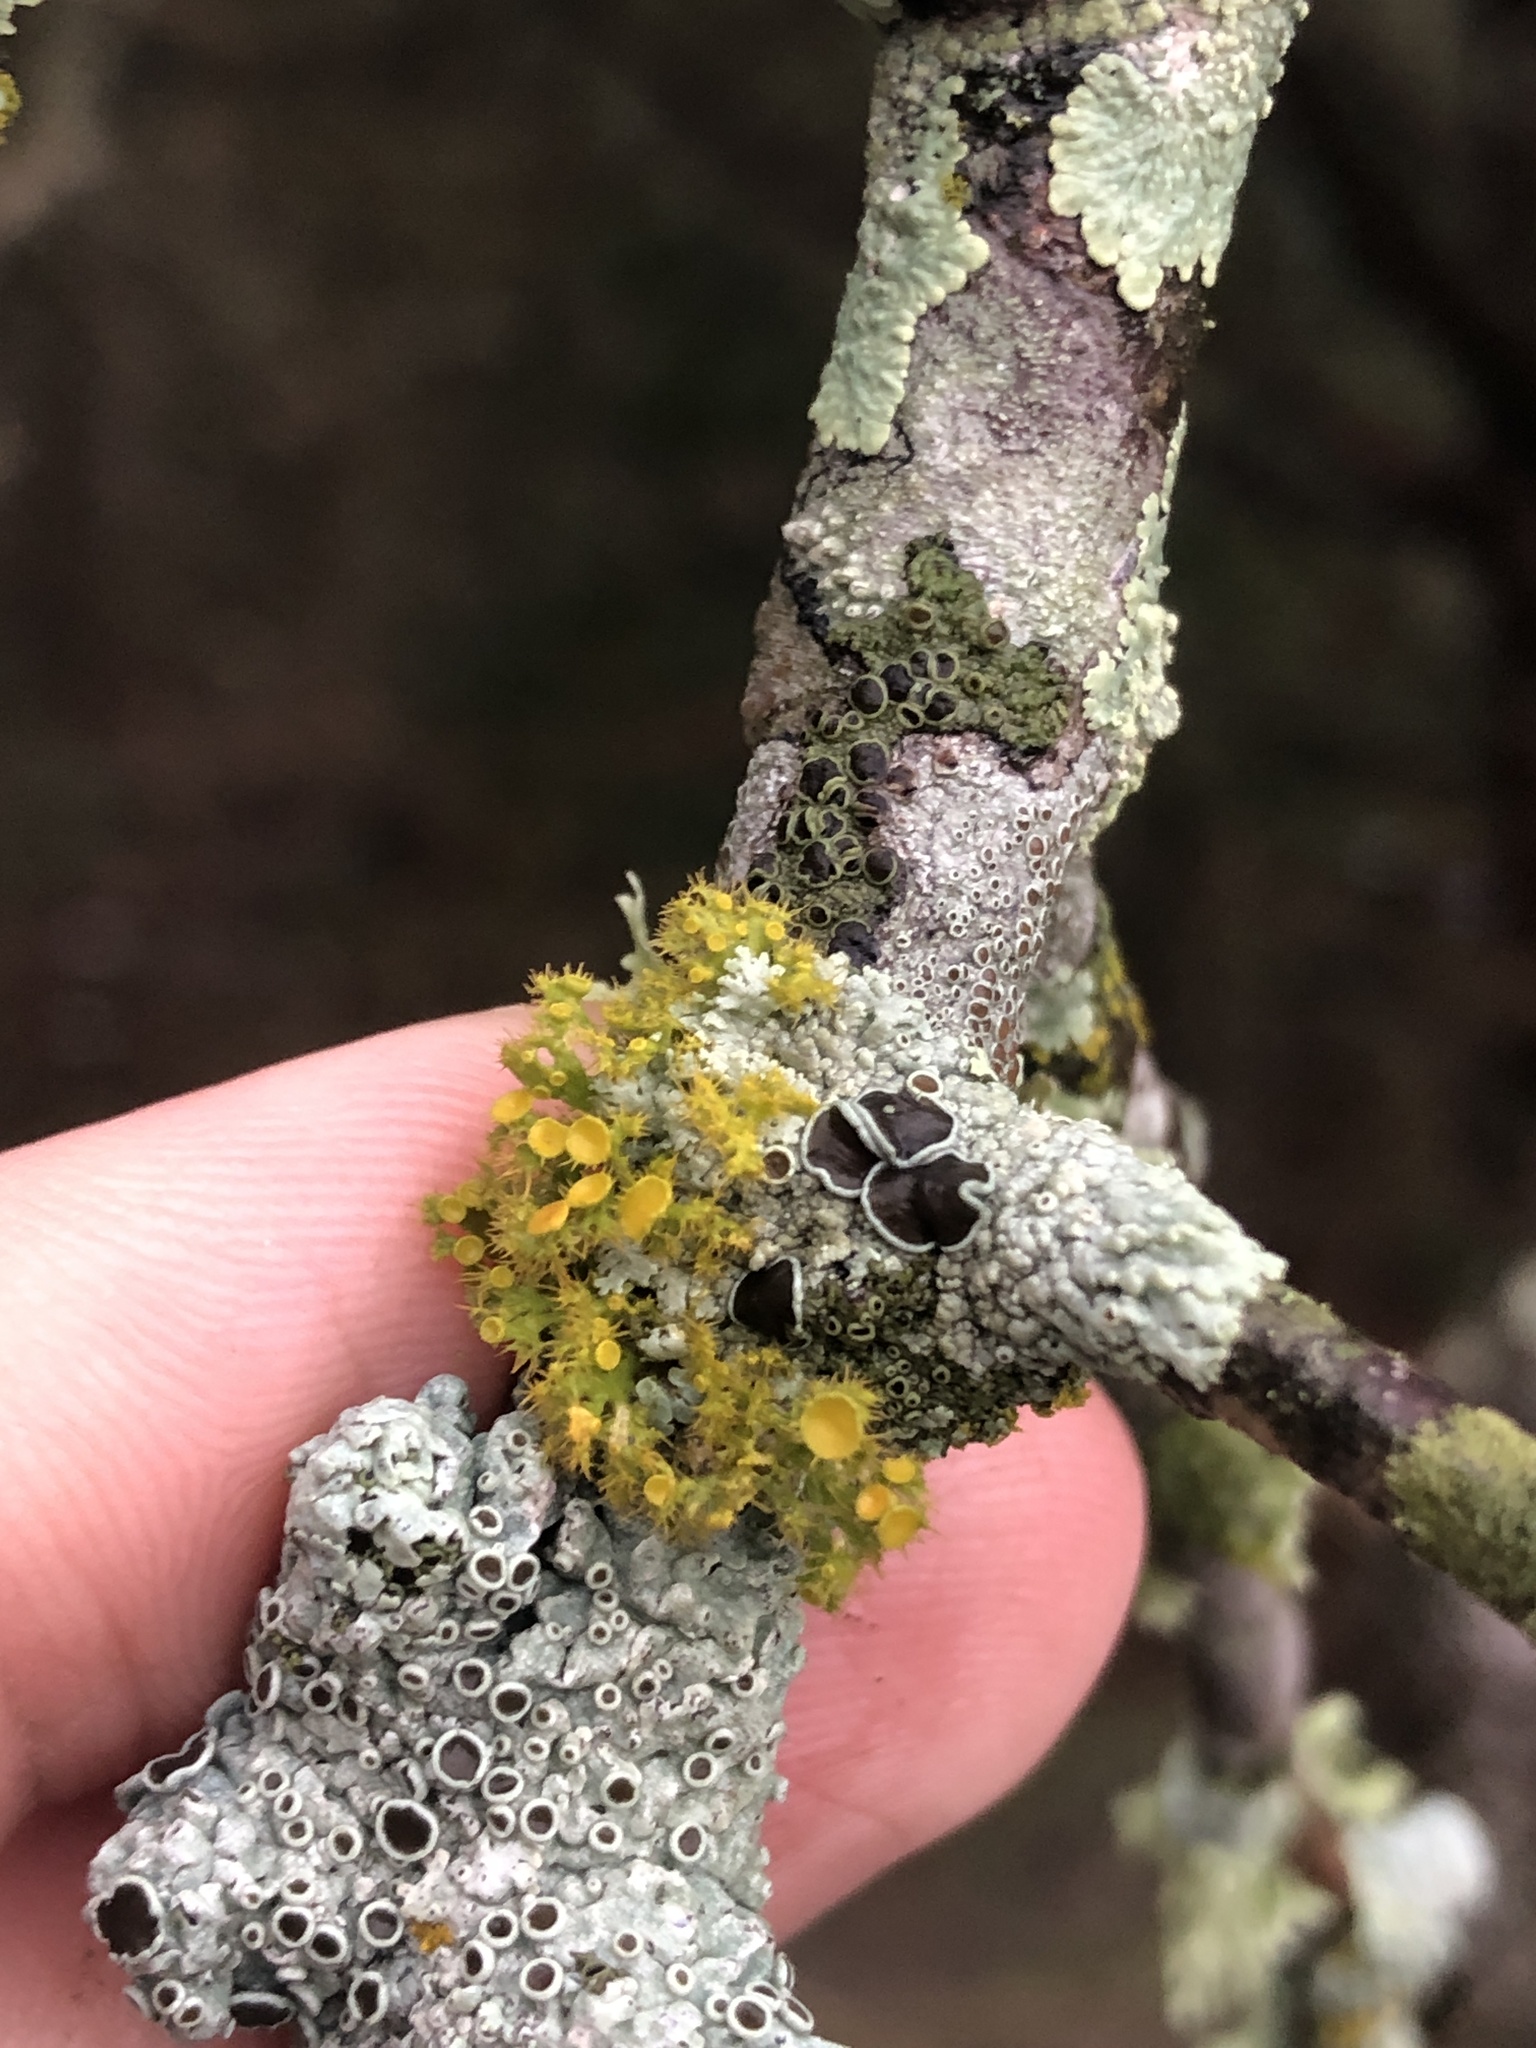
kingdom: Fungi
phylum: Ascomycota
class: Lecanoromycetes
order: Teloschistales
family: Teloschistaceae
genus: Niorma
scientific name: Niorma chrysophthalma
